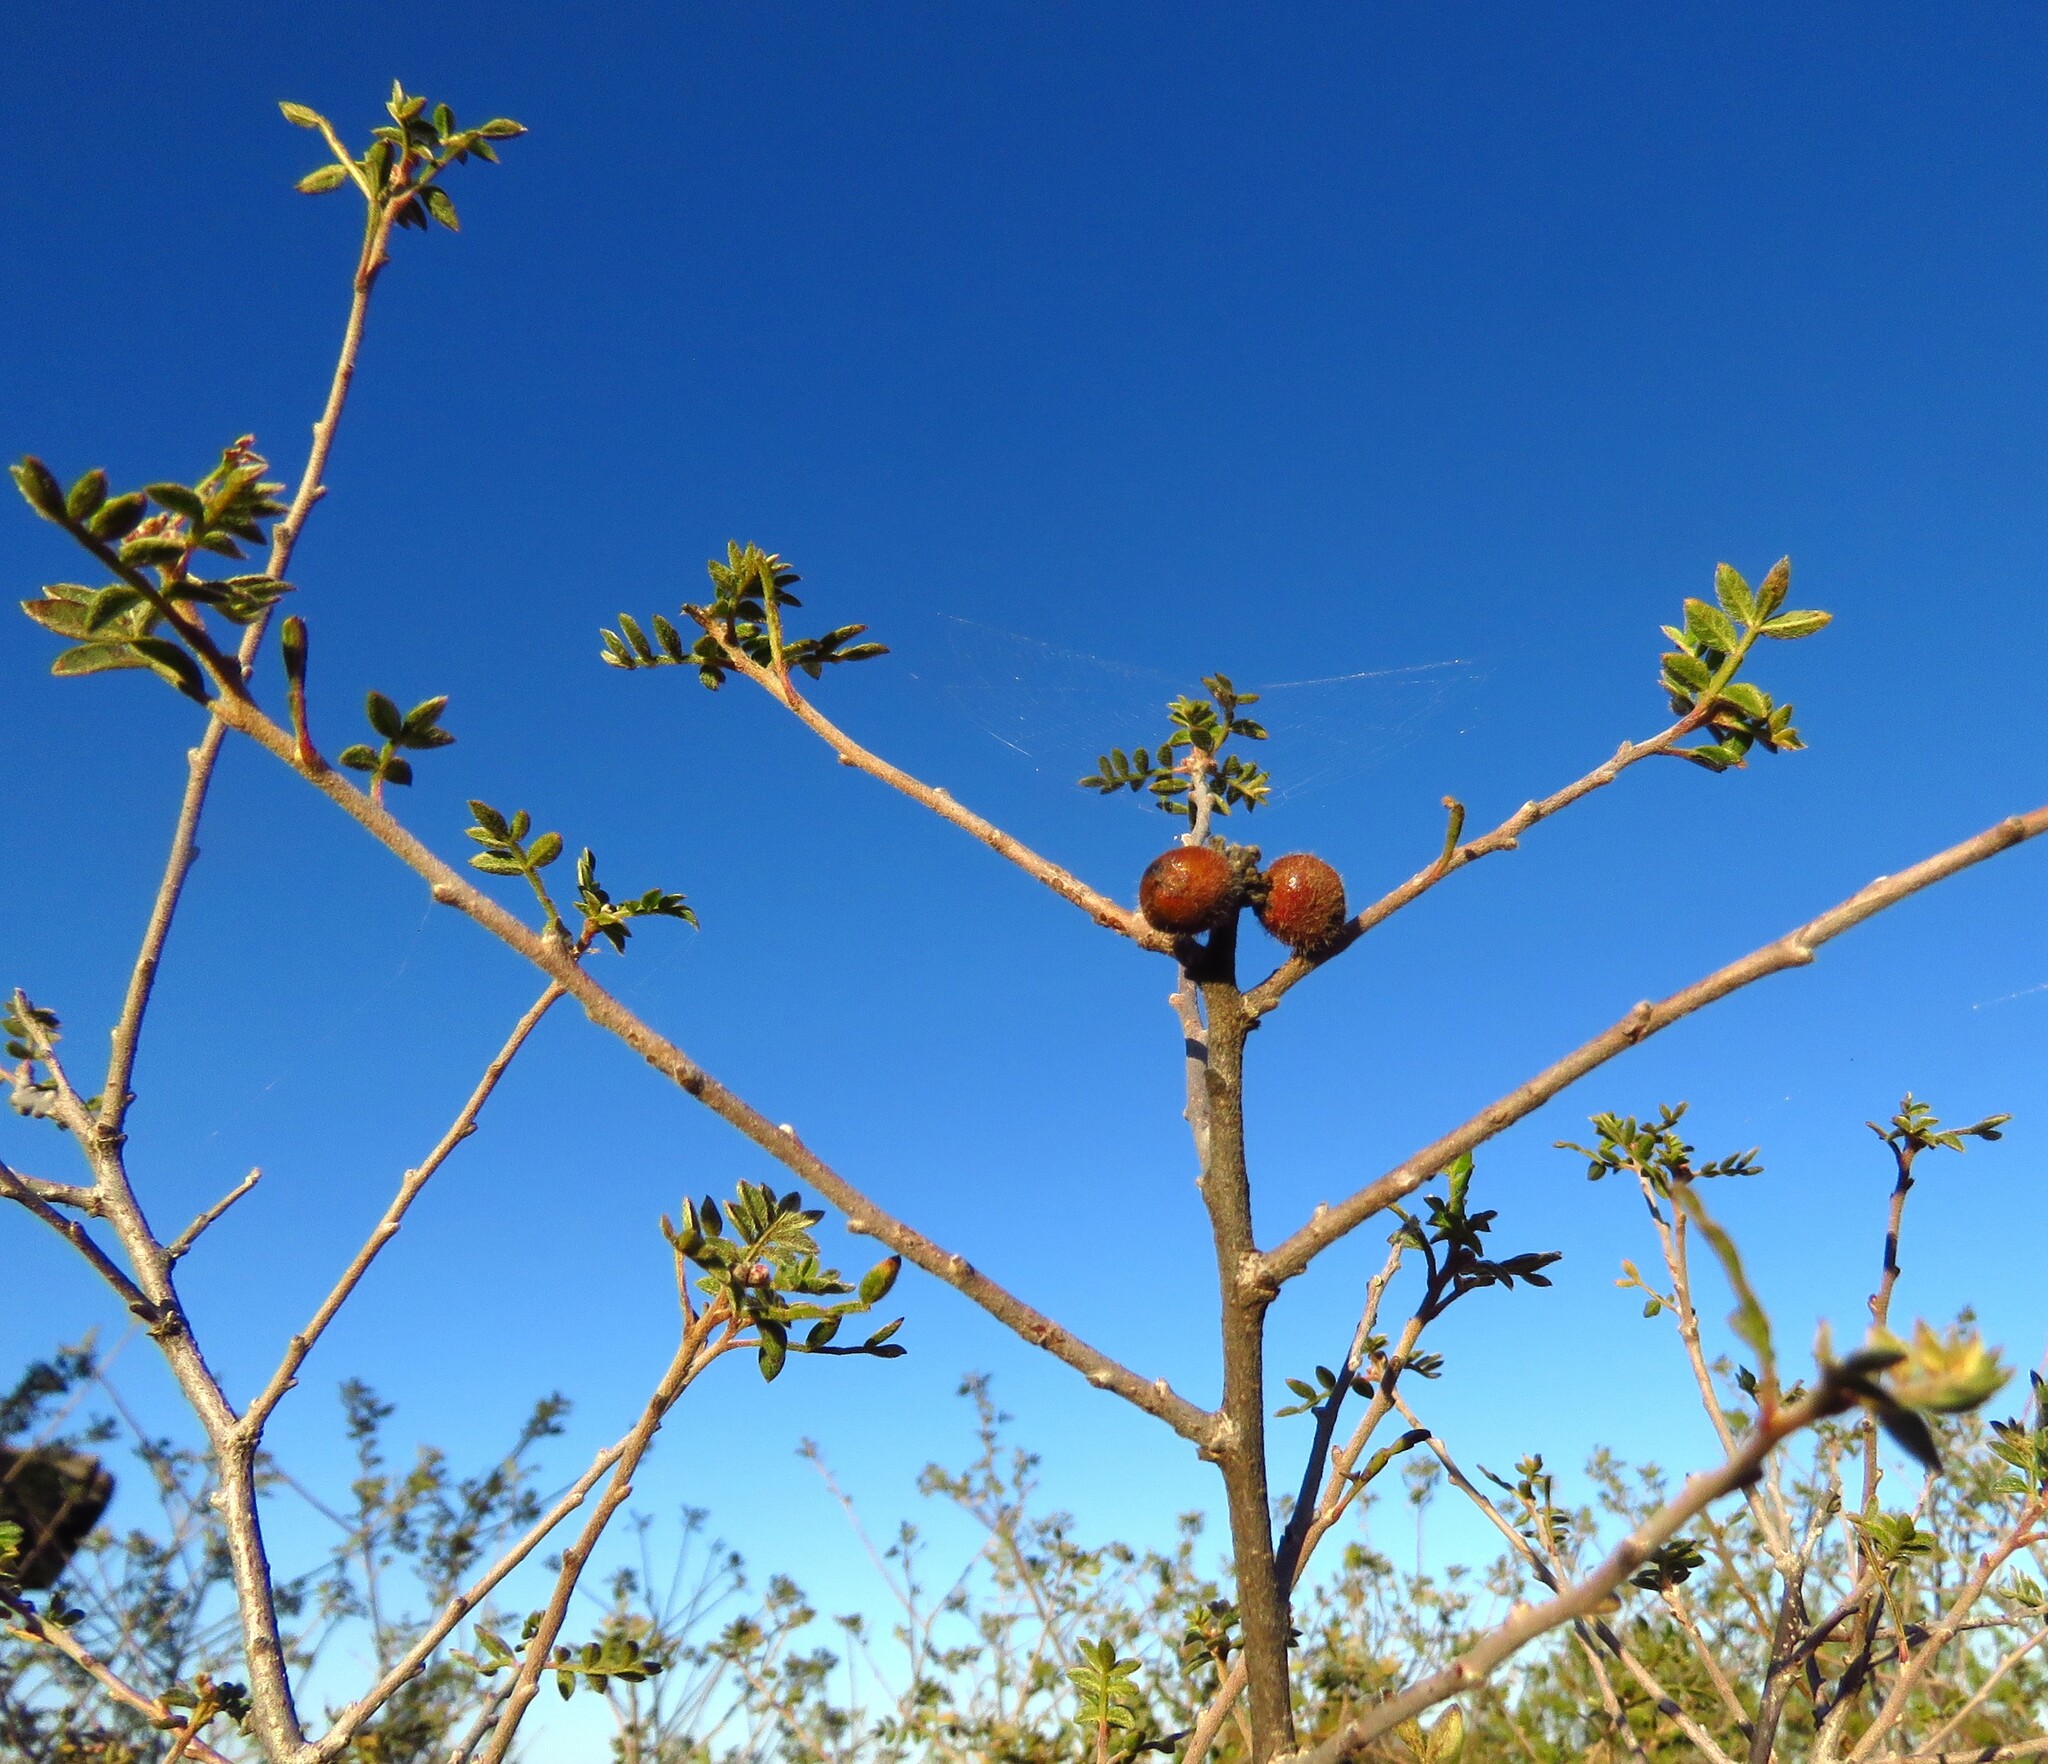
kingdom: Plantae
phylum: Tracheophyta
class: Magnoliopsida
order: Sapindales
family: Anacardiaceae
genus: Rhus
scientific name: Rhus microphylla
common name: Desert sumac
